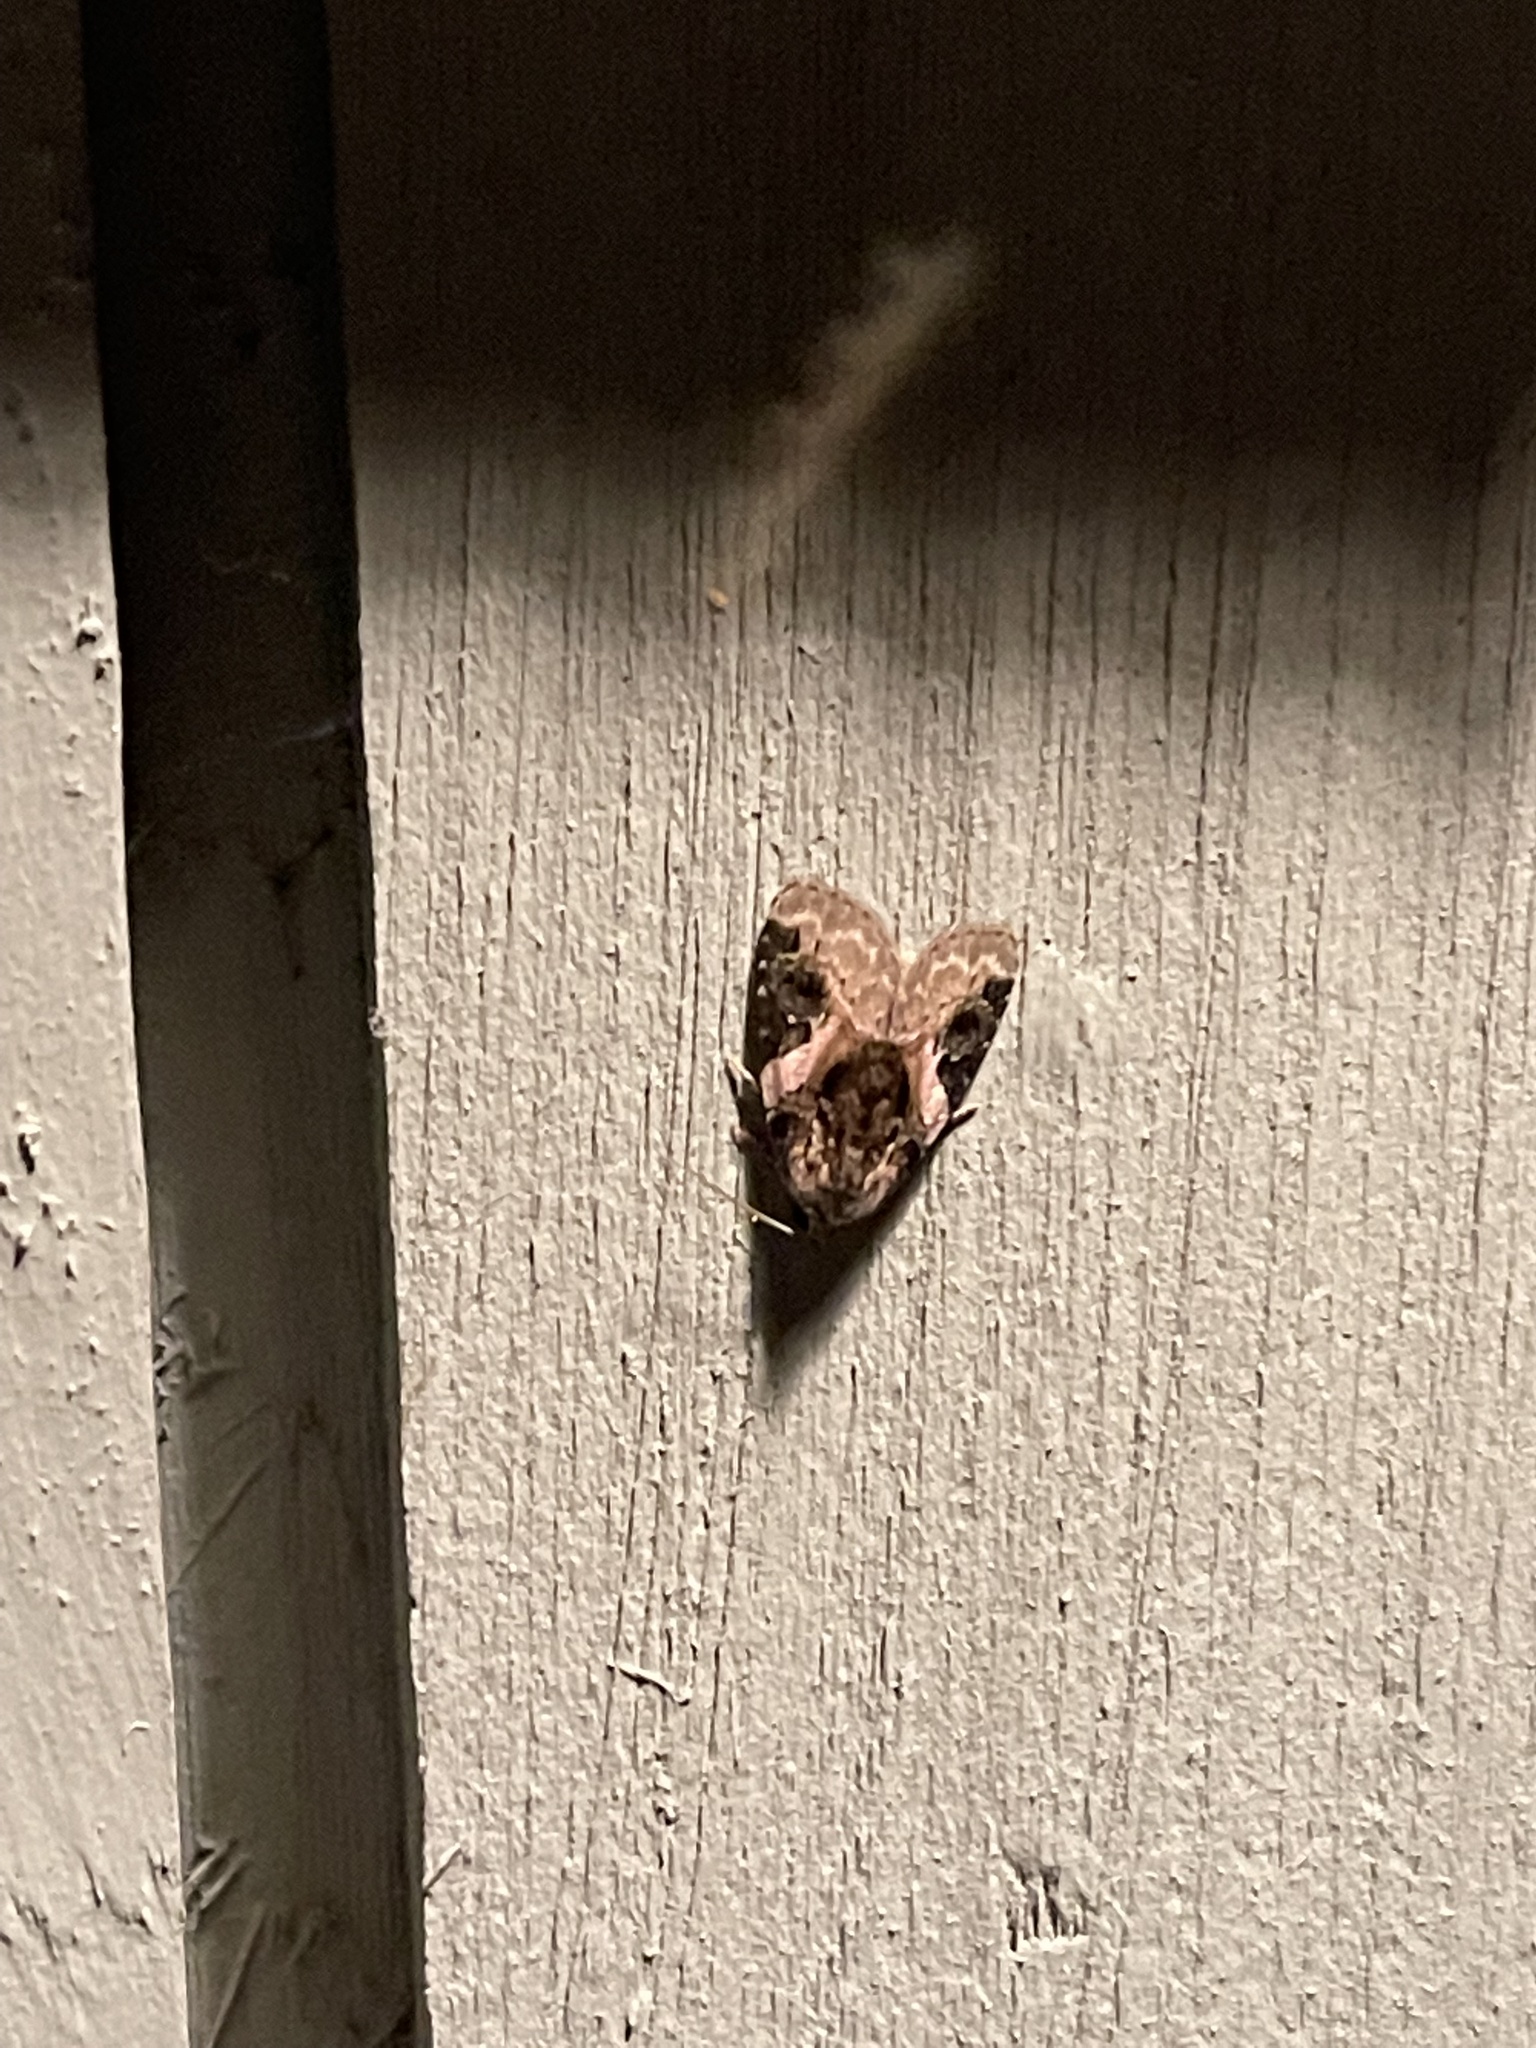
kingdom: Animalia
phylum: Arthropoda
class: Insecta
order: Lepidoptera
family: Noctuidae
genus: Pseudeustrotia
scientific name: Pseudeustrotia carneola
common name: Pink-barred lithacodia moth
